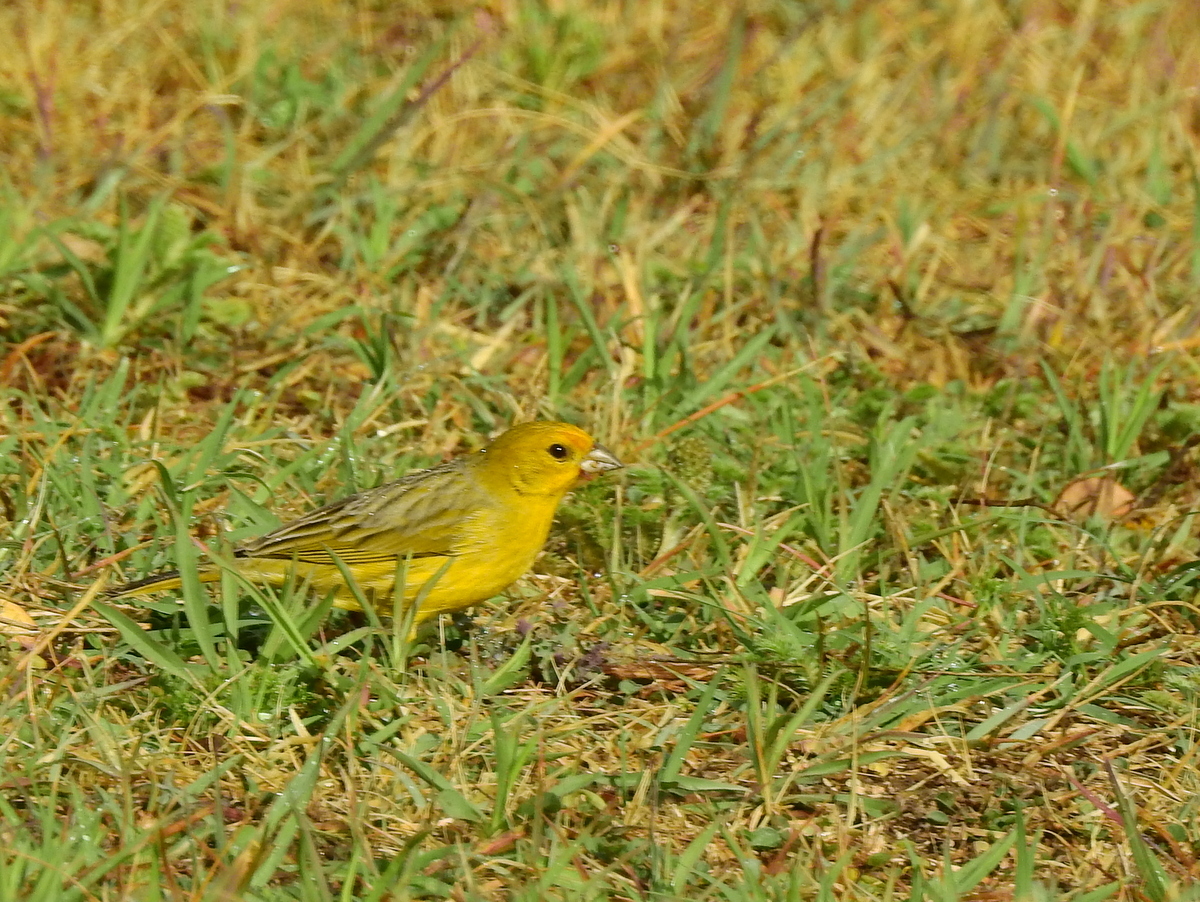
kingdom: Animalia
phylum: Chordata
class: Aves
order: Passeriformes
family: Thraupidae
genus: Sicalis
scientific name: Sicalis flaveola
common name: Saffron finch
